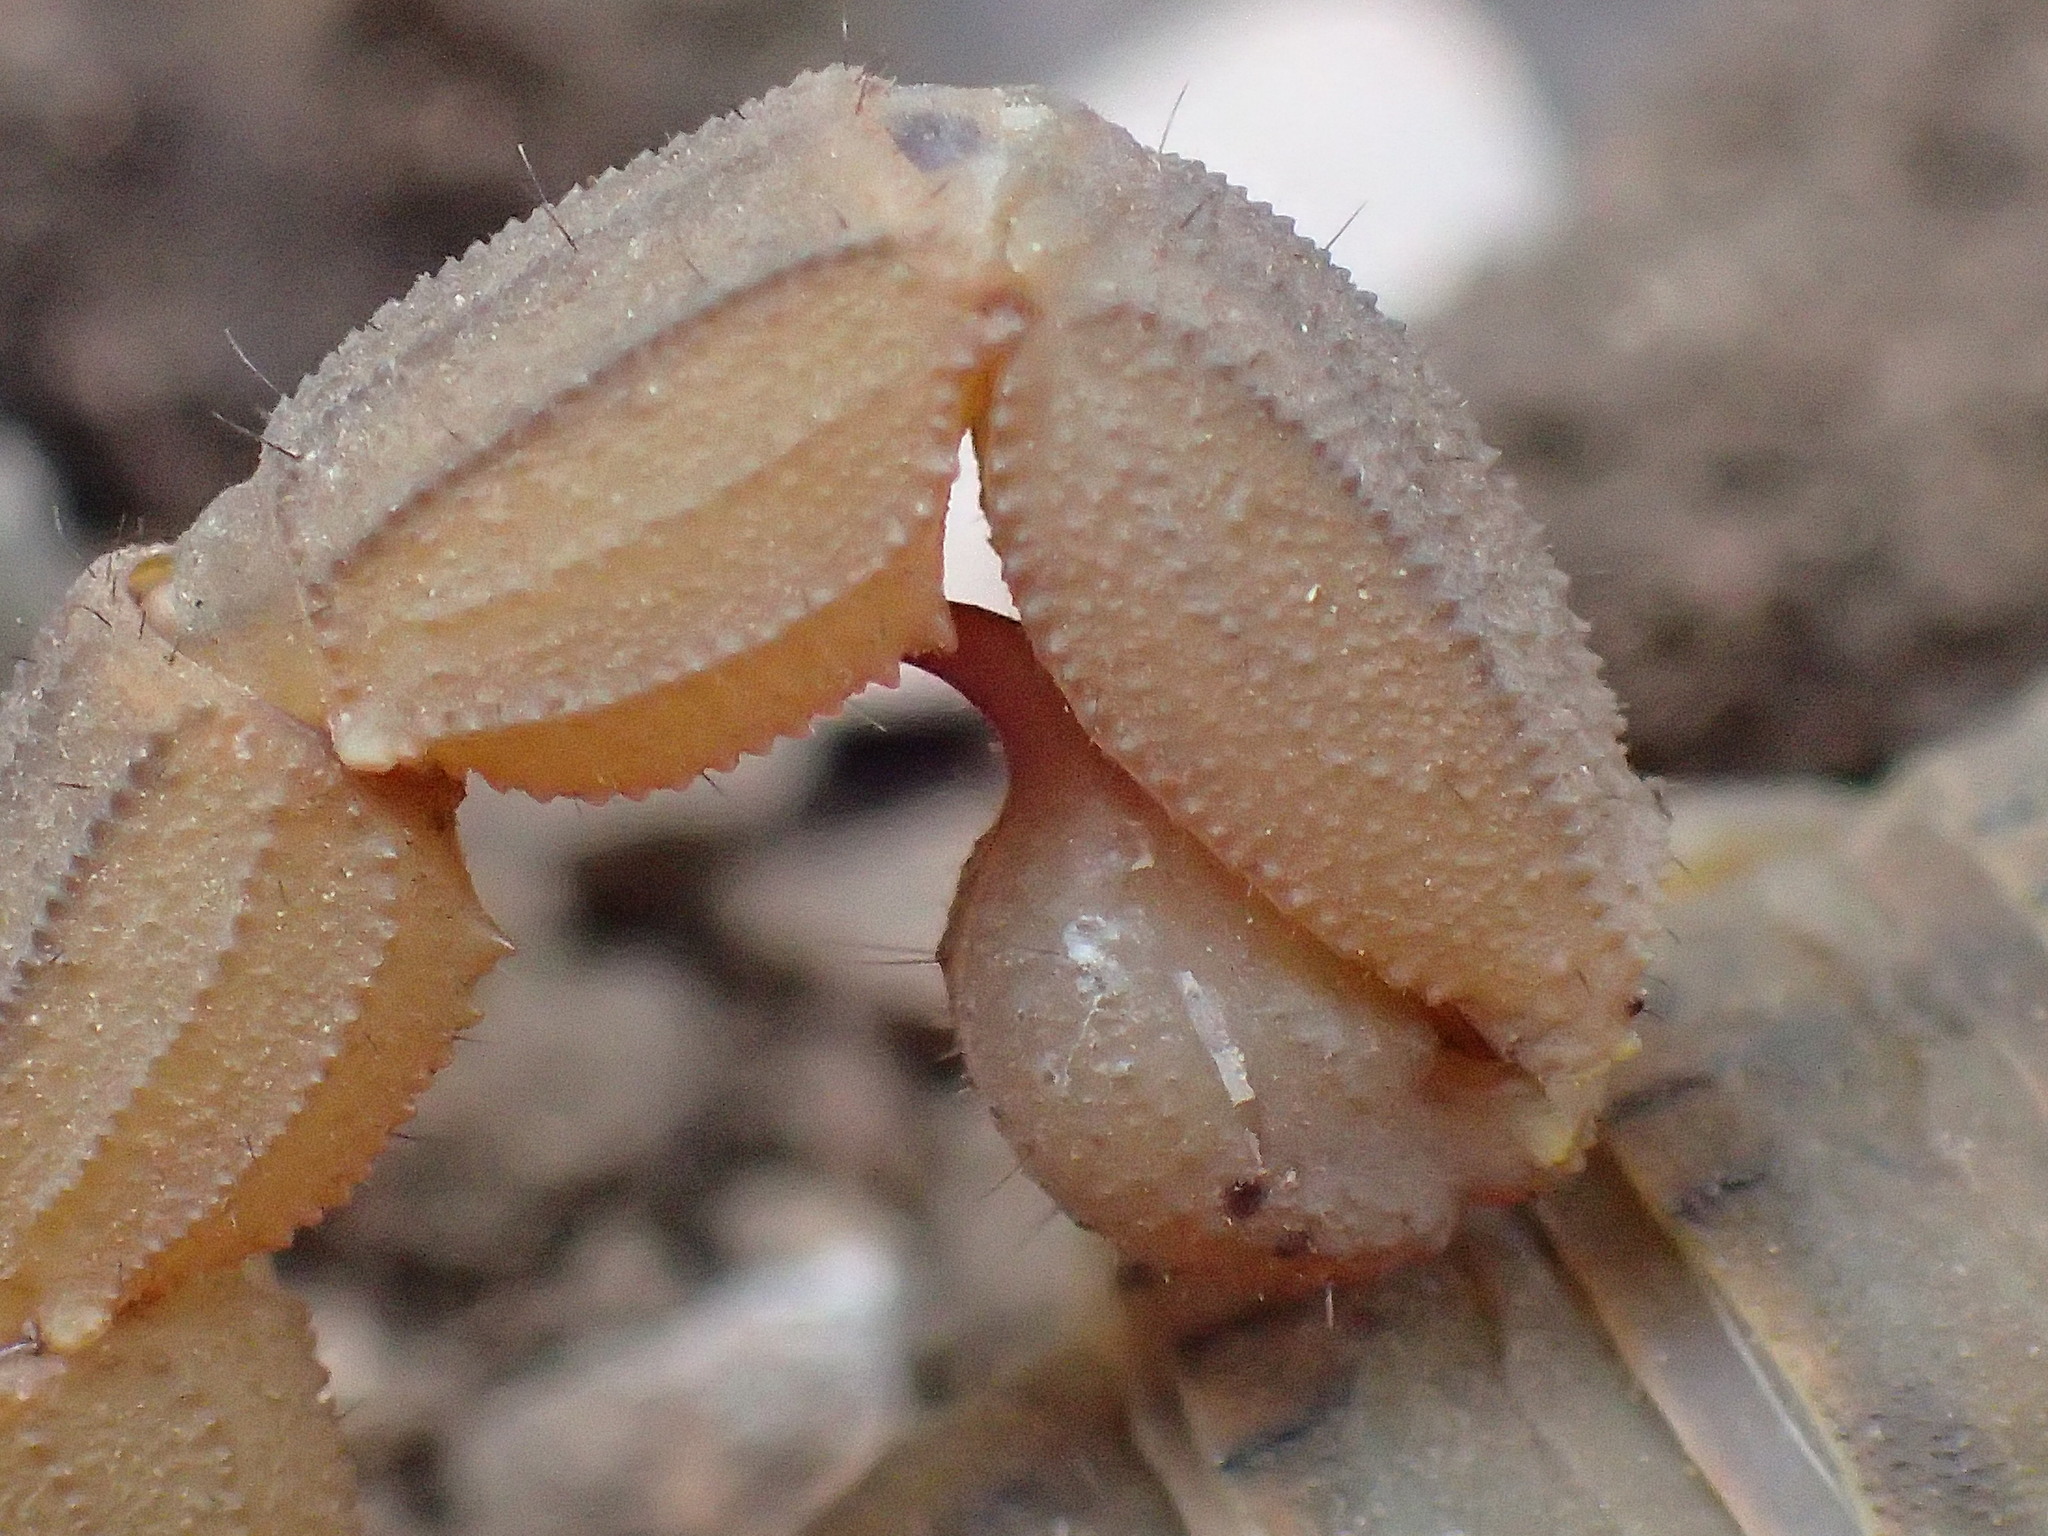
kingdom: Animalia
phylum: Arthropoda
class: Arachnida
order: Scorpiones
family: Buthidae
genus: Hottentotta
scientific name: Hottentotta trilineatus
